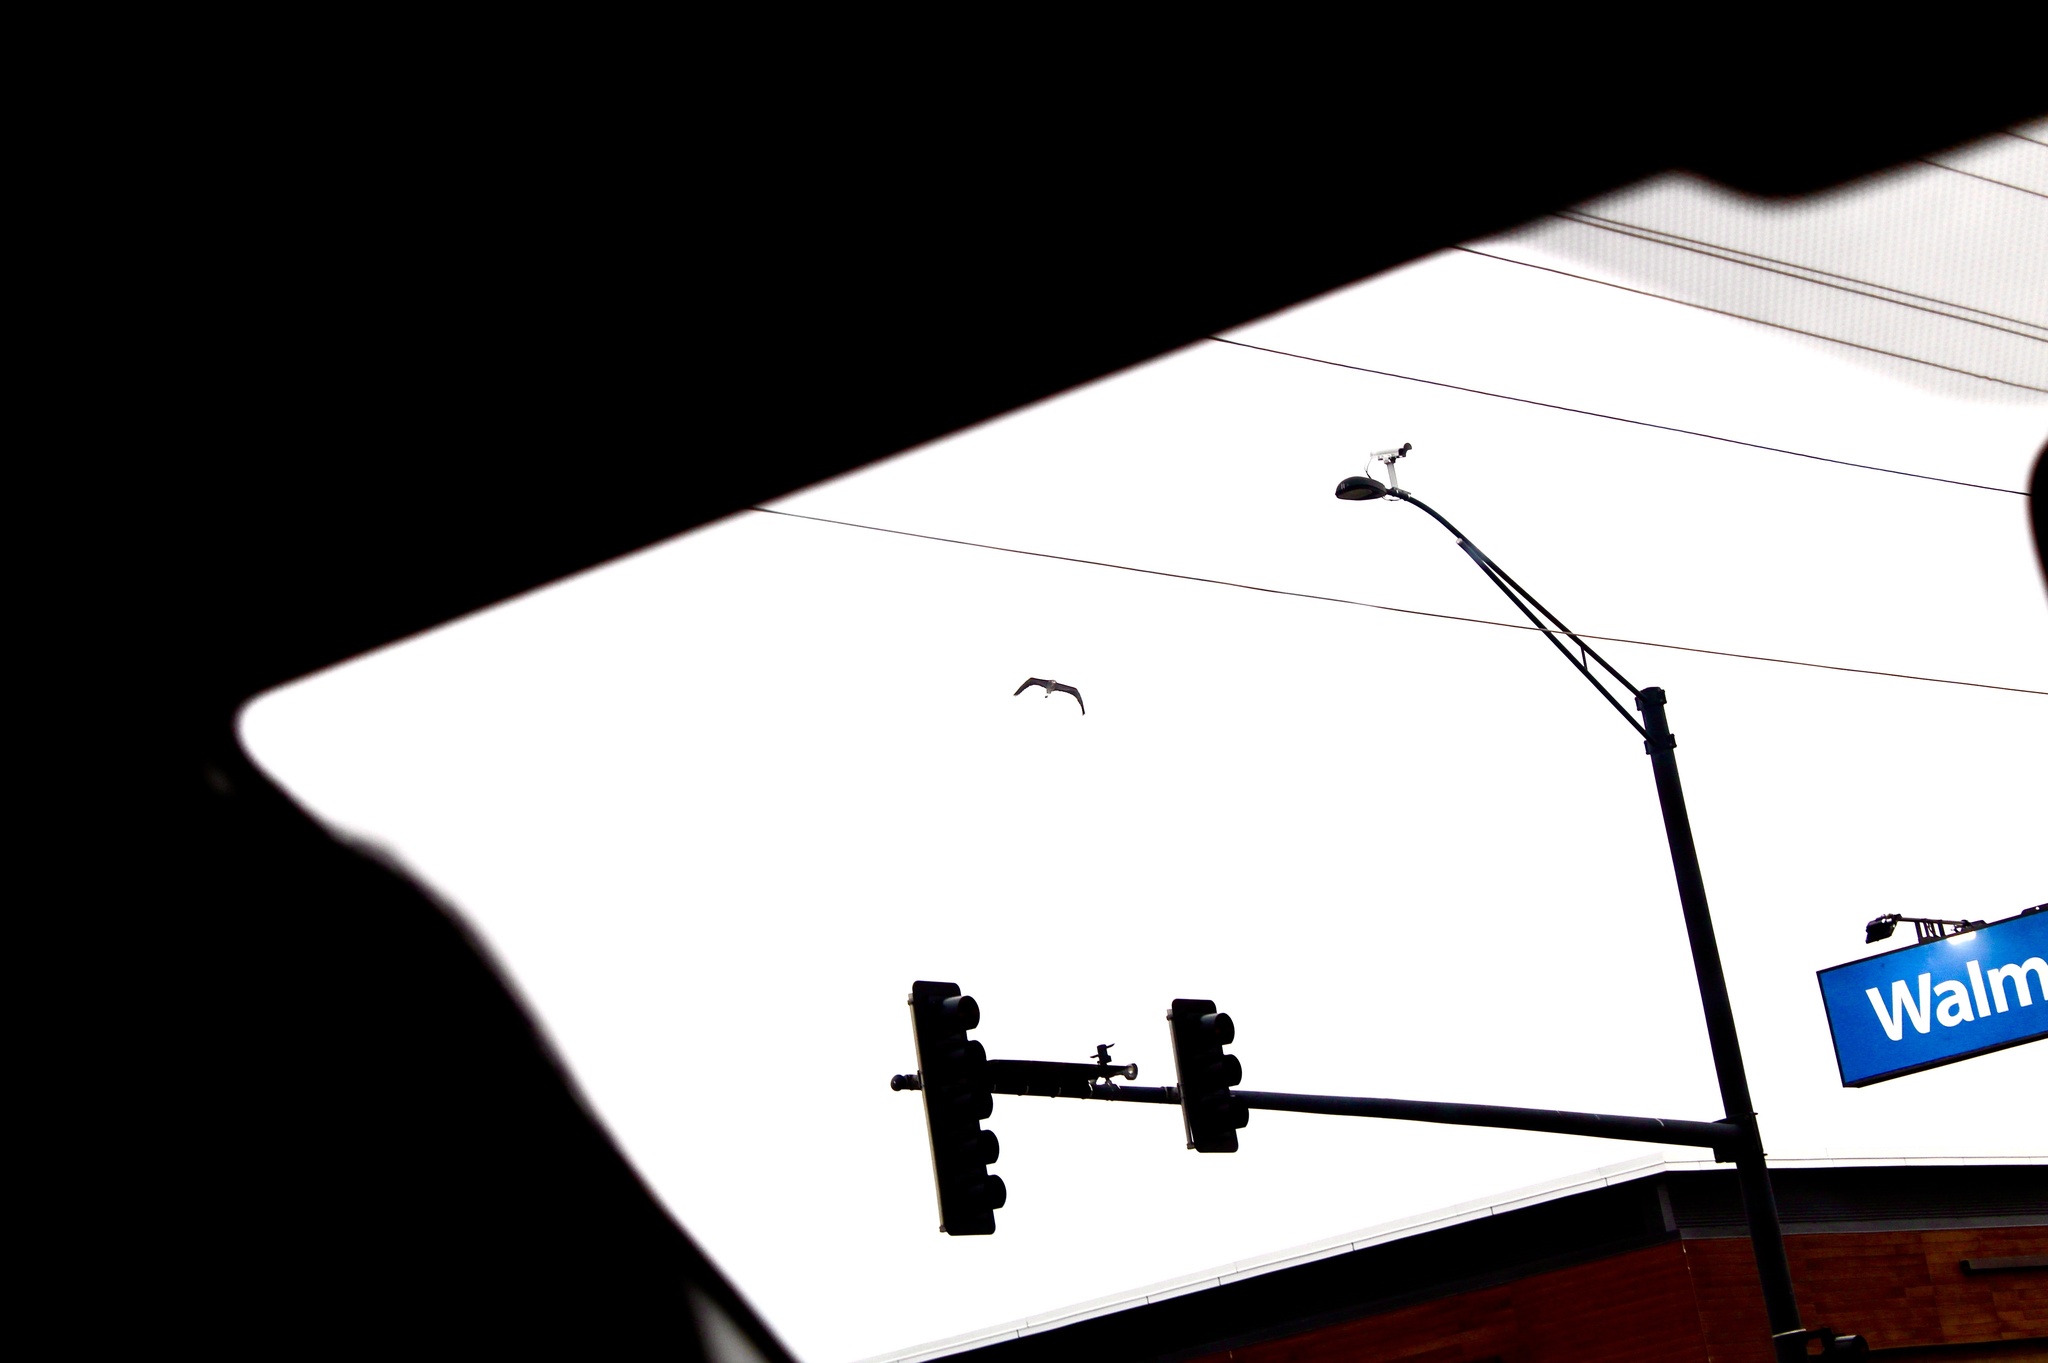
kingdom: Animalia
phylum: Chordata
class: Aves
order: Pelecaniformes
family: Ardeidae
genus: Ardea
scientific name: Ardea herodias
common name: Great blue heron
